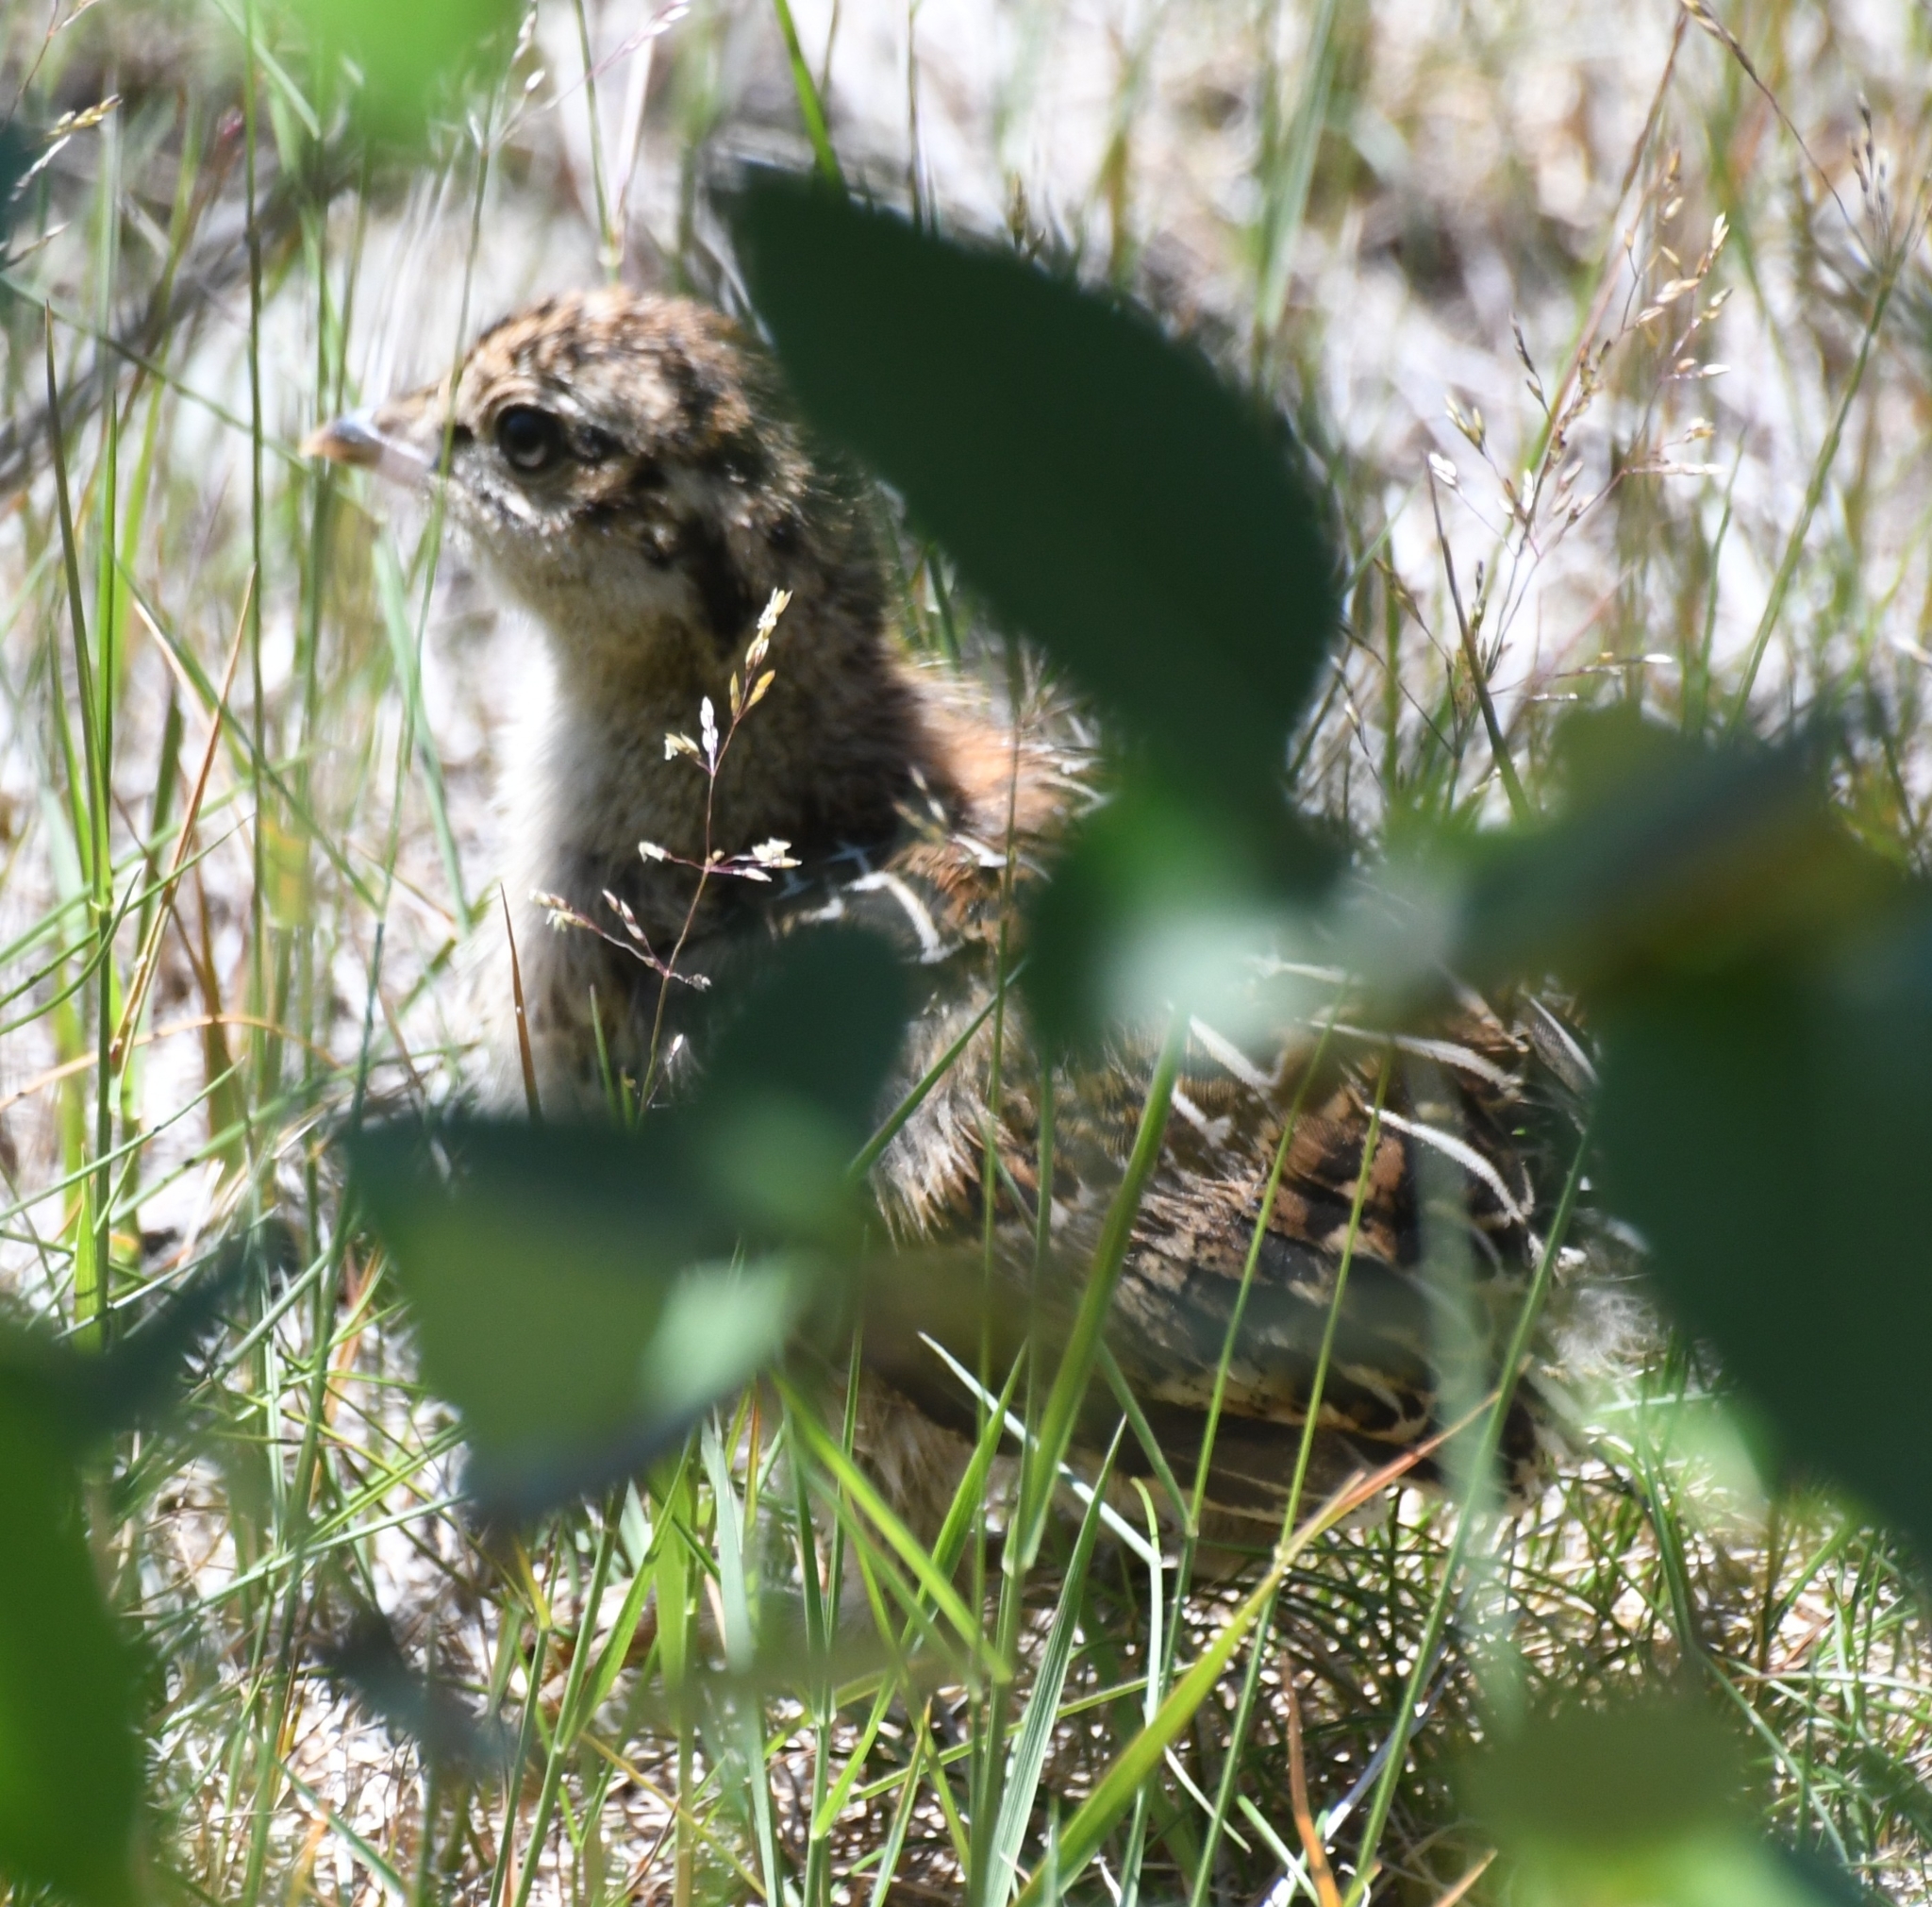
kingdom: Animalia
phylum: Chordata
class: Aves
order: Galliformes
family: Phasianidae
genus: Dendragapus
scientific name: Dendragapus fuliginosus
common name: Sooty grouse
